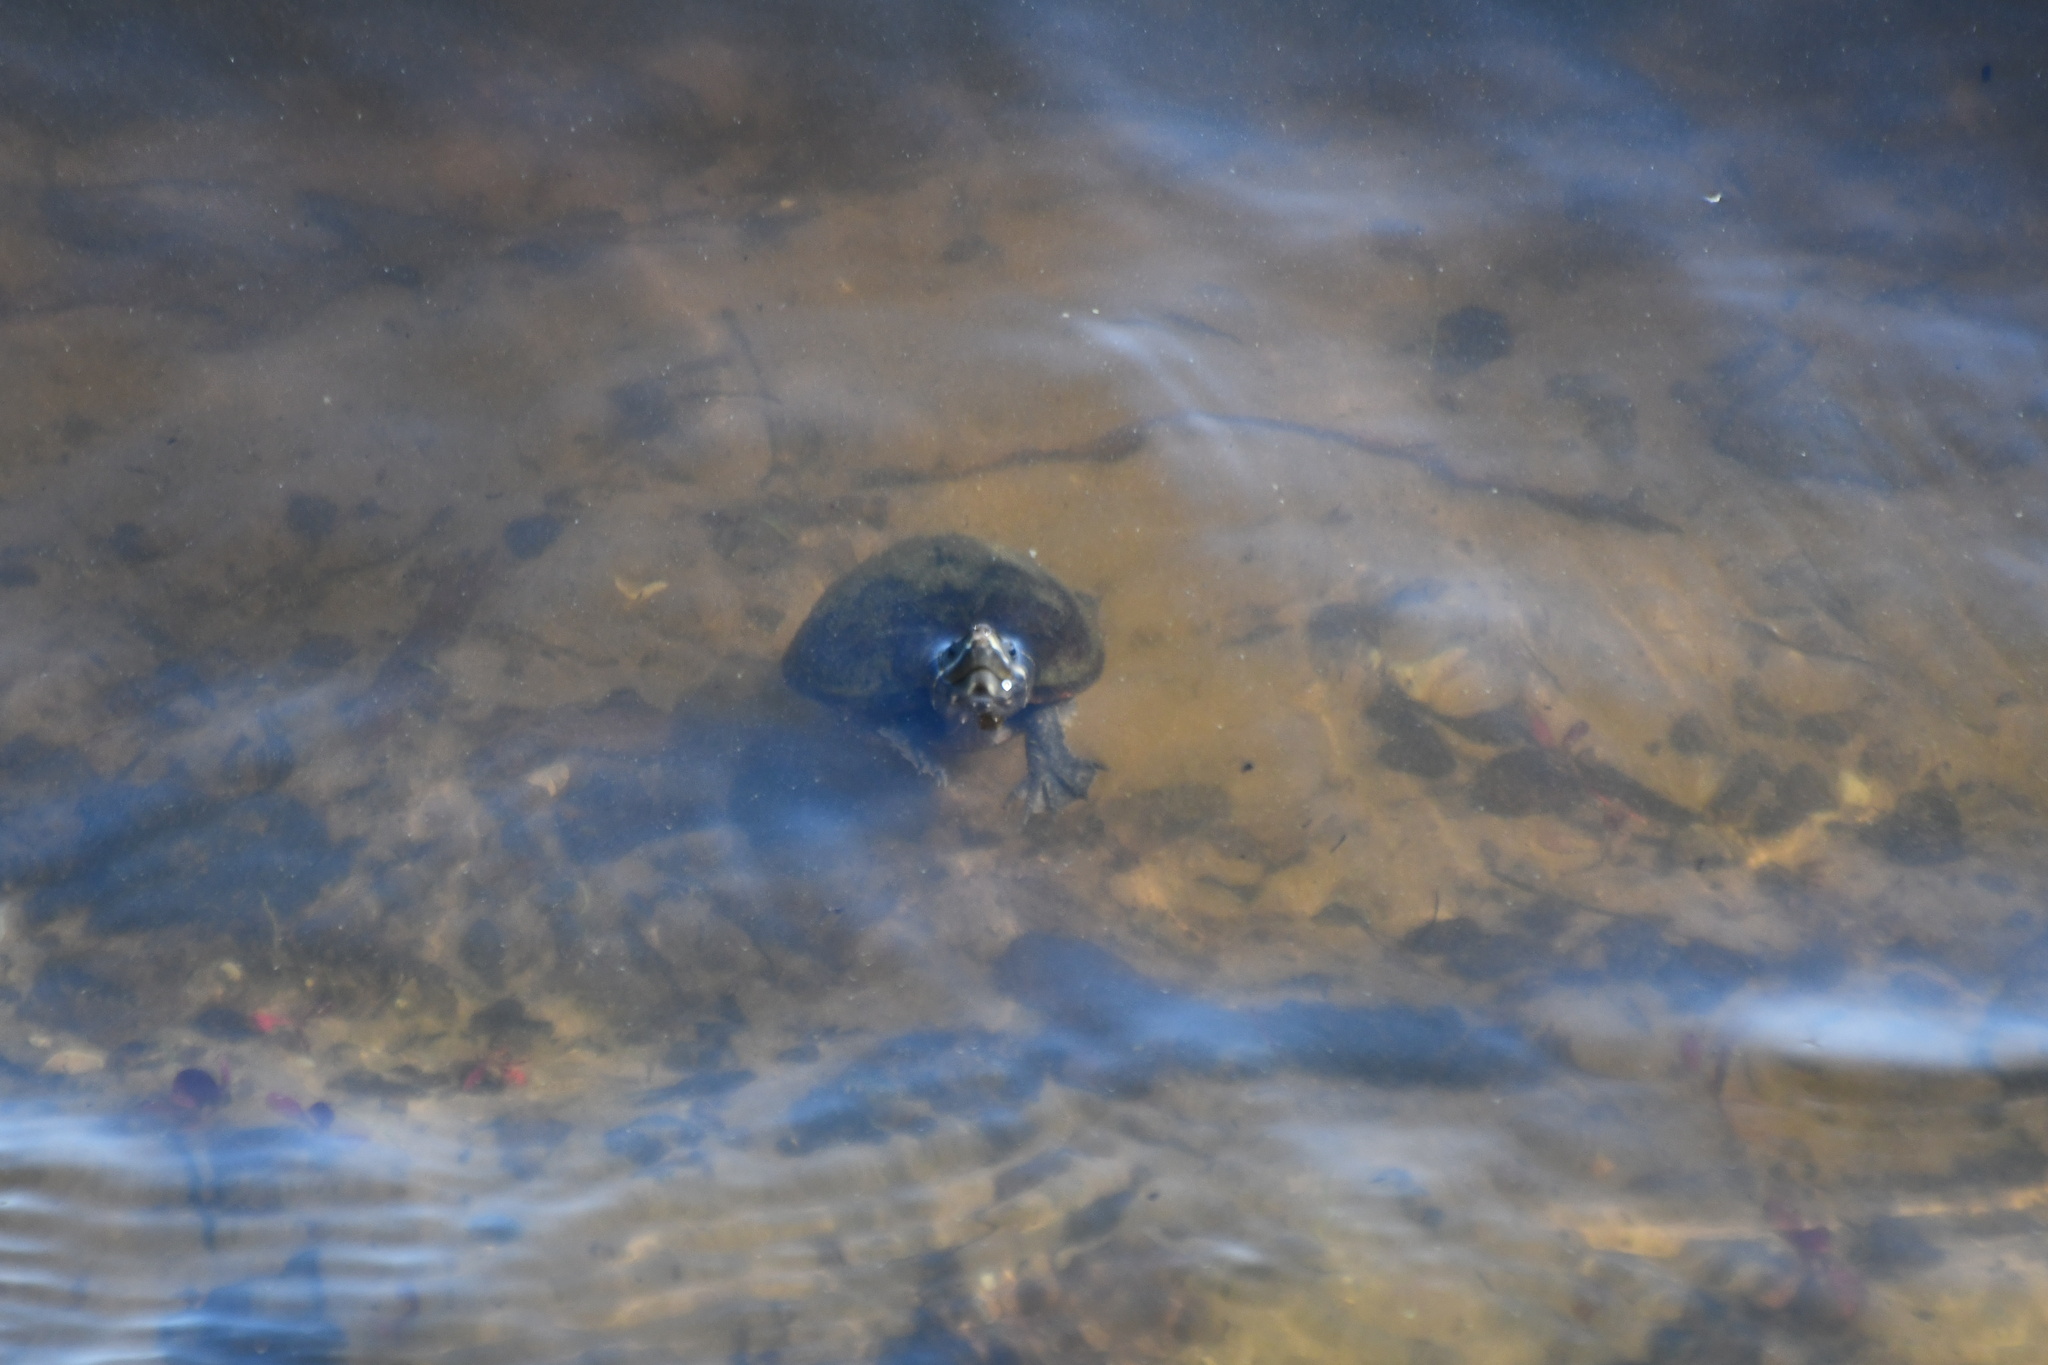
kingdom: Animalia
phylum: Chordata
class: Testudines
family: Kinosternidae
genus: Sternotherus
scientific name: Sternotherus odoratus
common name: Common musk turtle
